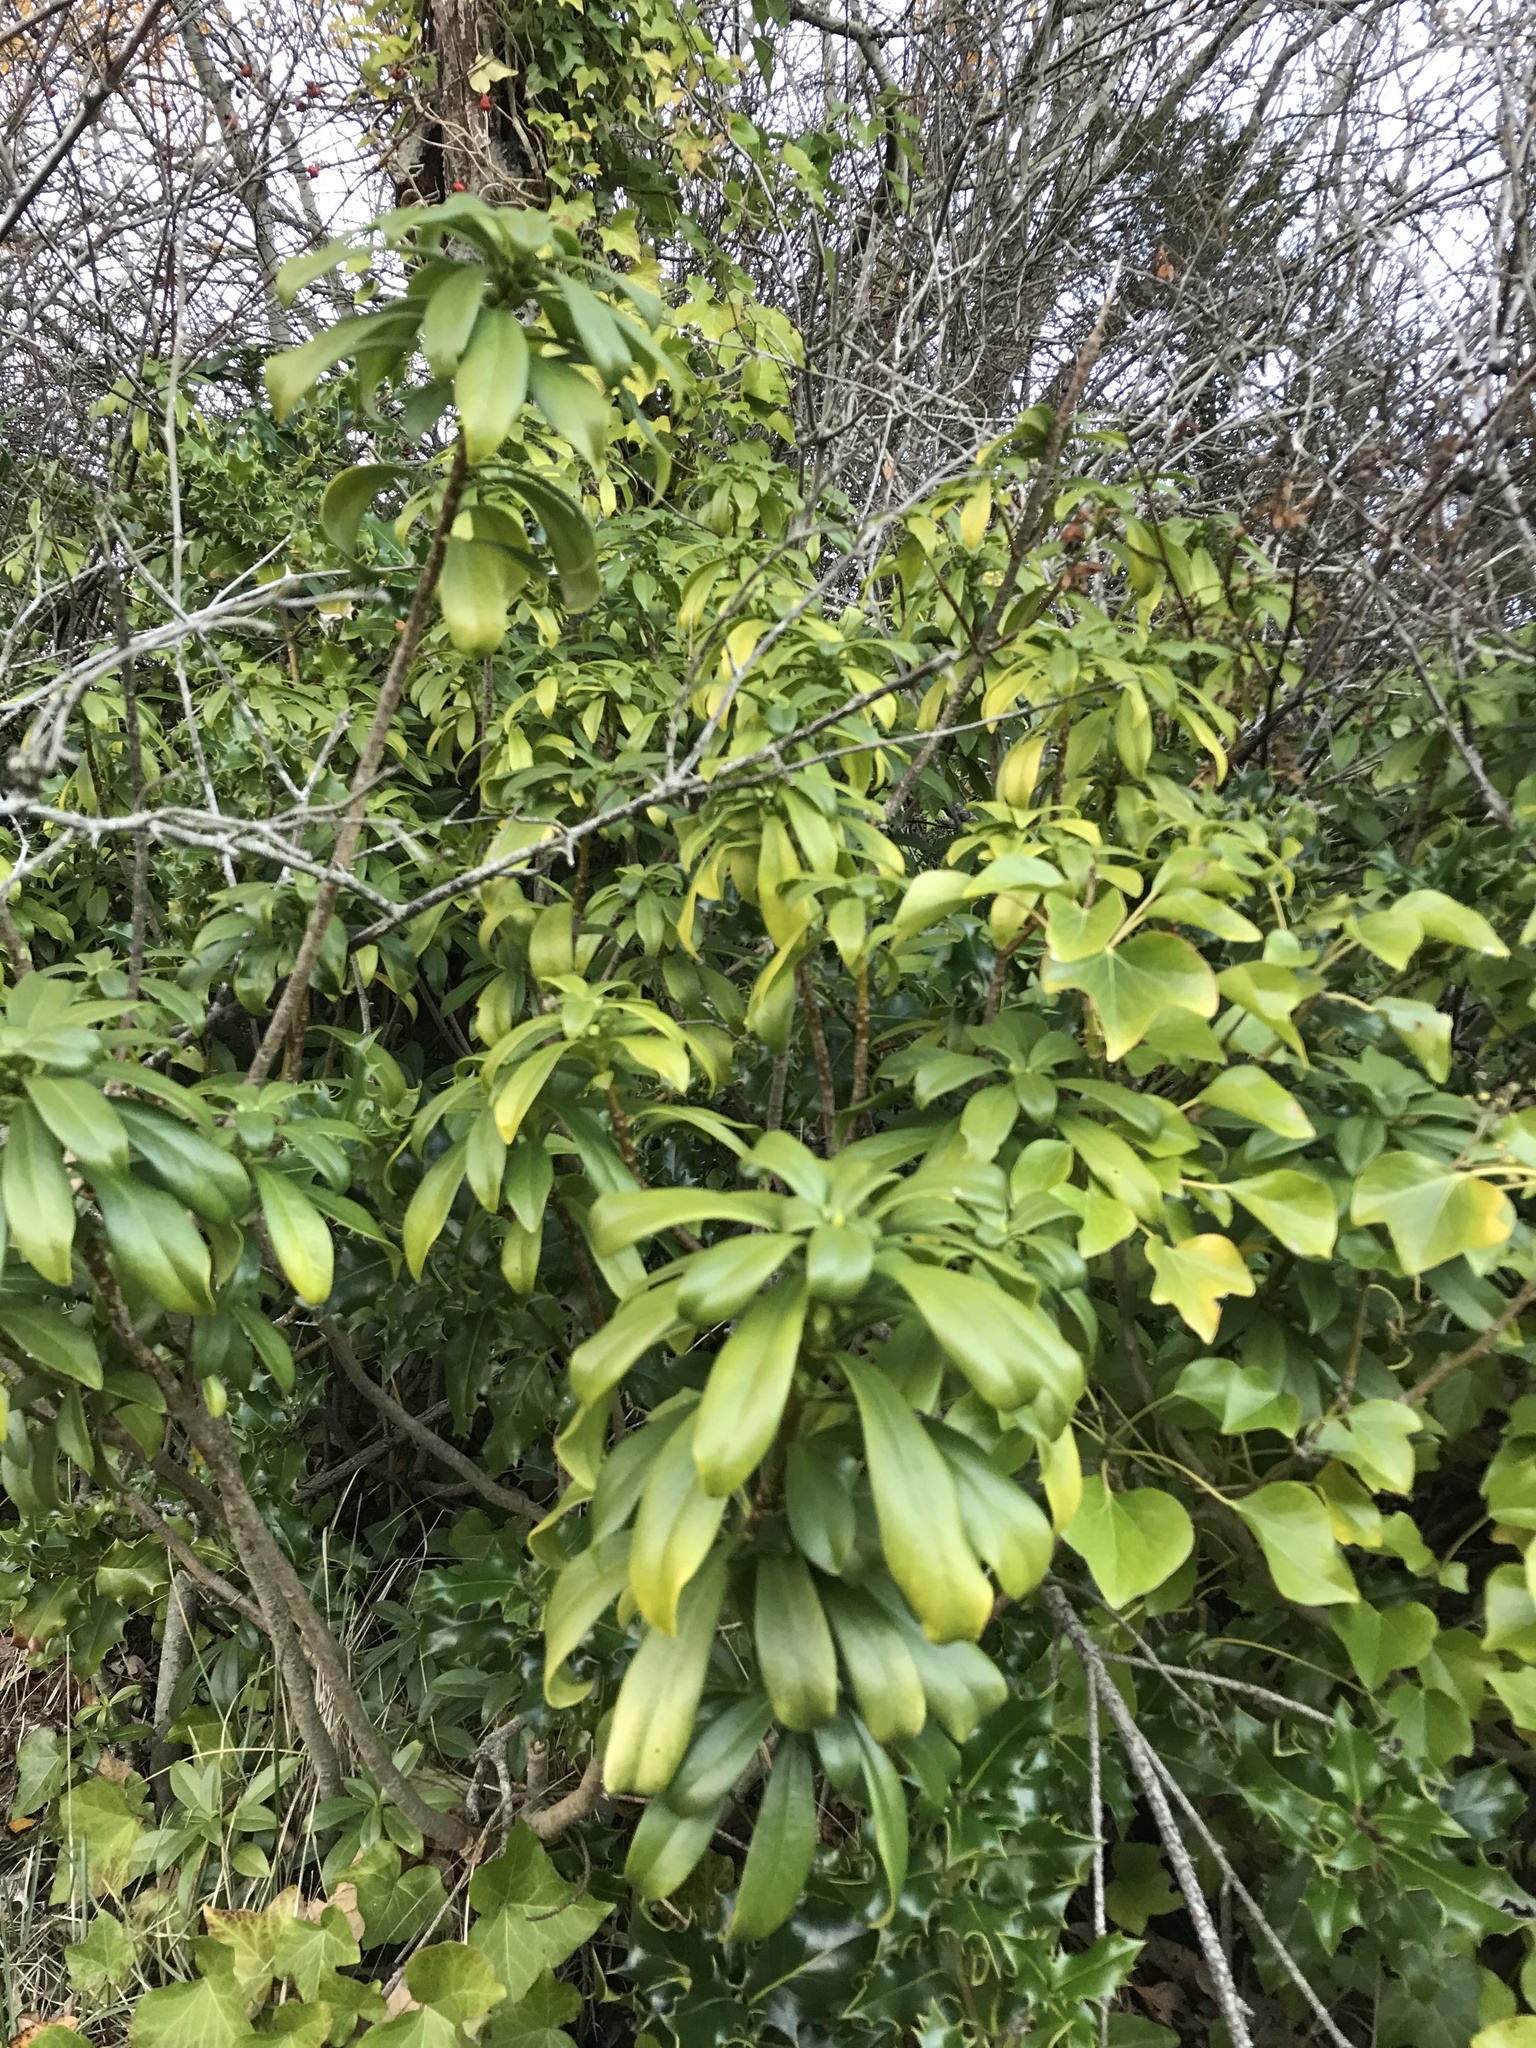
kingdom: Plantae
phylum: Tracheophyta
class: Magnoliopsida
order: Malvales
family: Thymelaeaceae
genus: Daphne
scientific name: Daphne laureola
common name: Spurge-laurel
